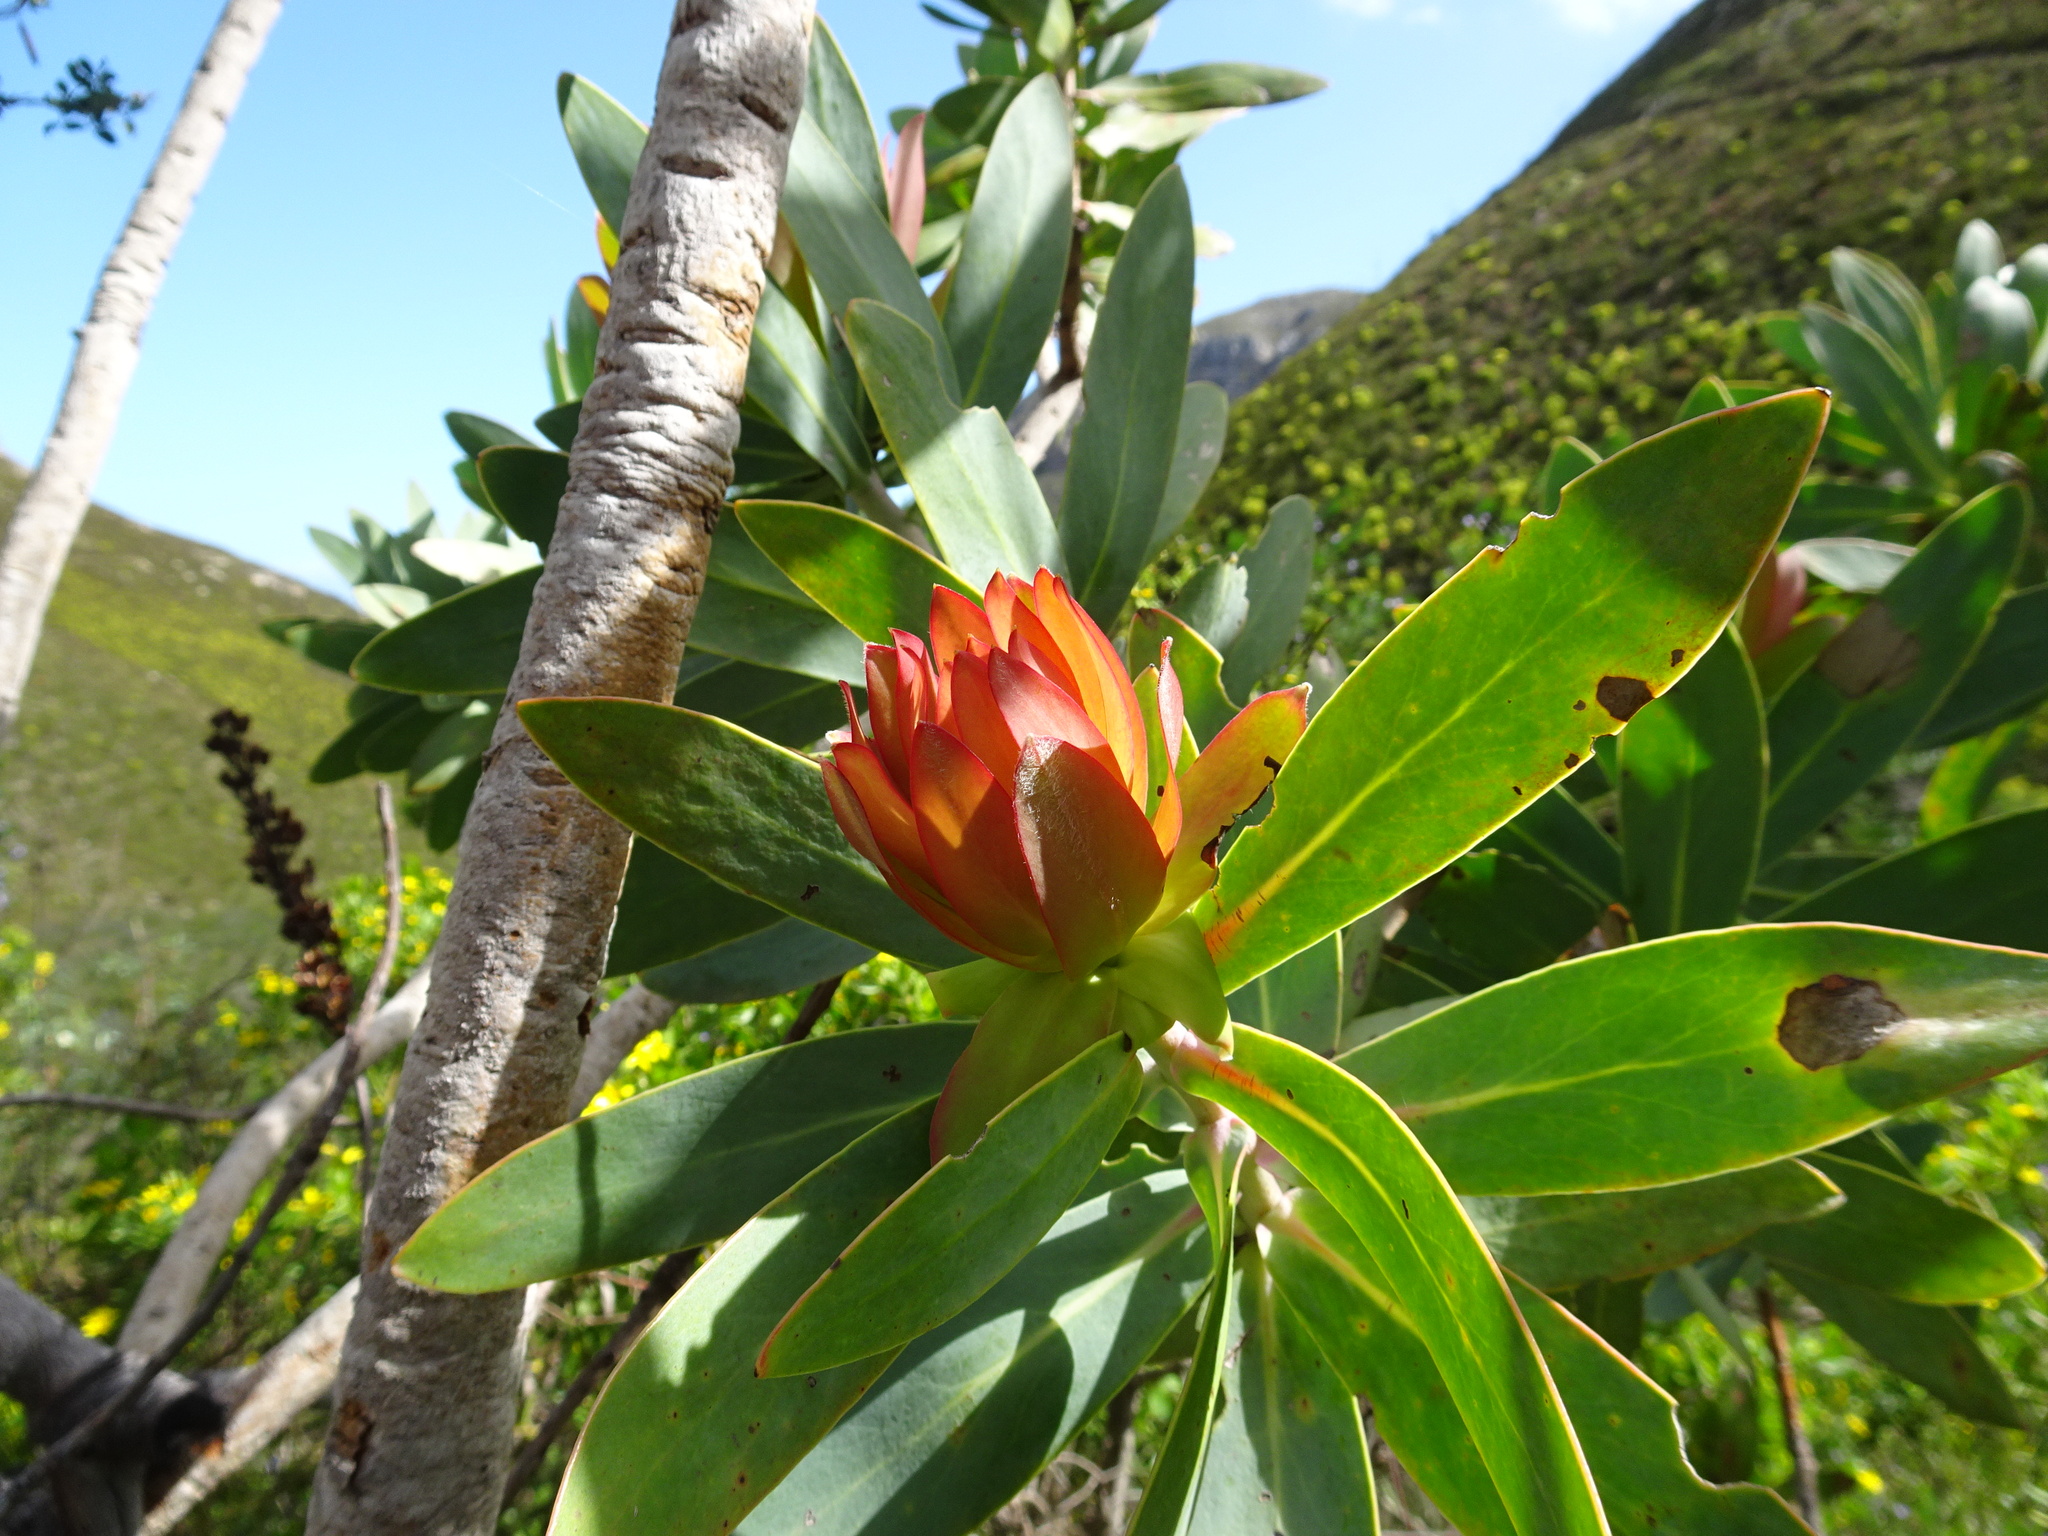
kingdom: Plantae
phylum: Tracheophyta
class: Magnoliopsida
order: Proteales
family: Proteaceae
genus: Protea
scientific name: Protea nitida
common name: Tree protea
